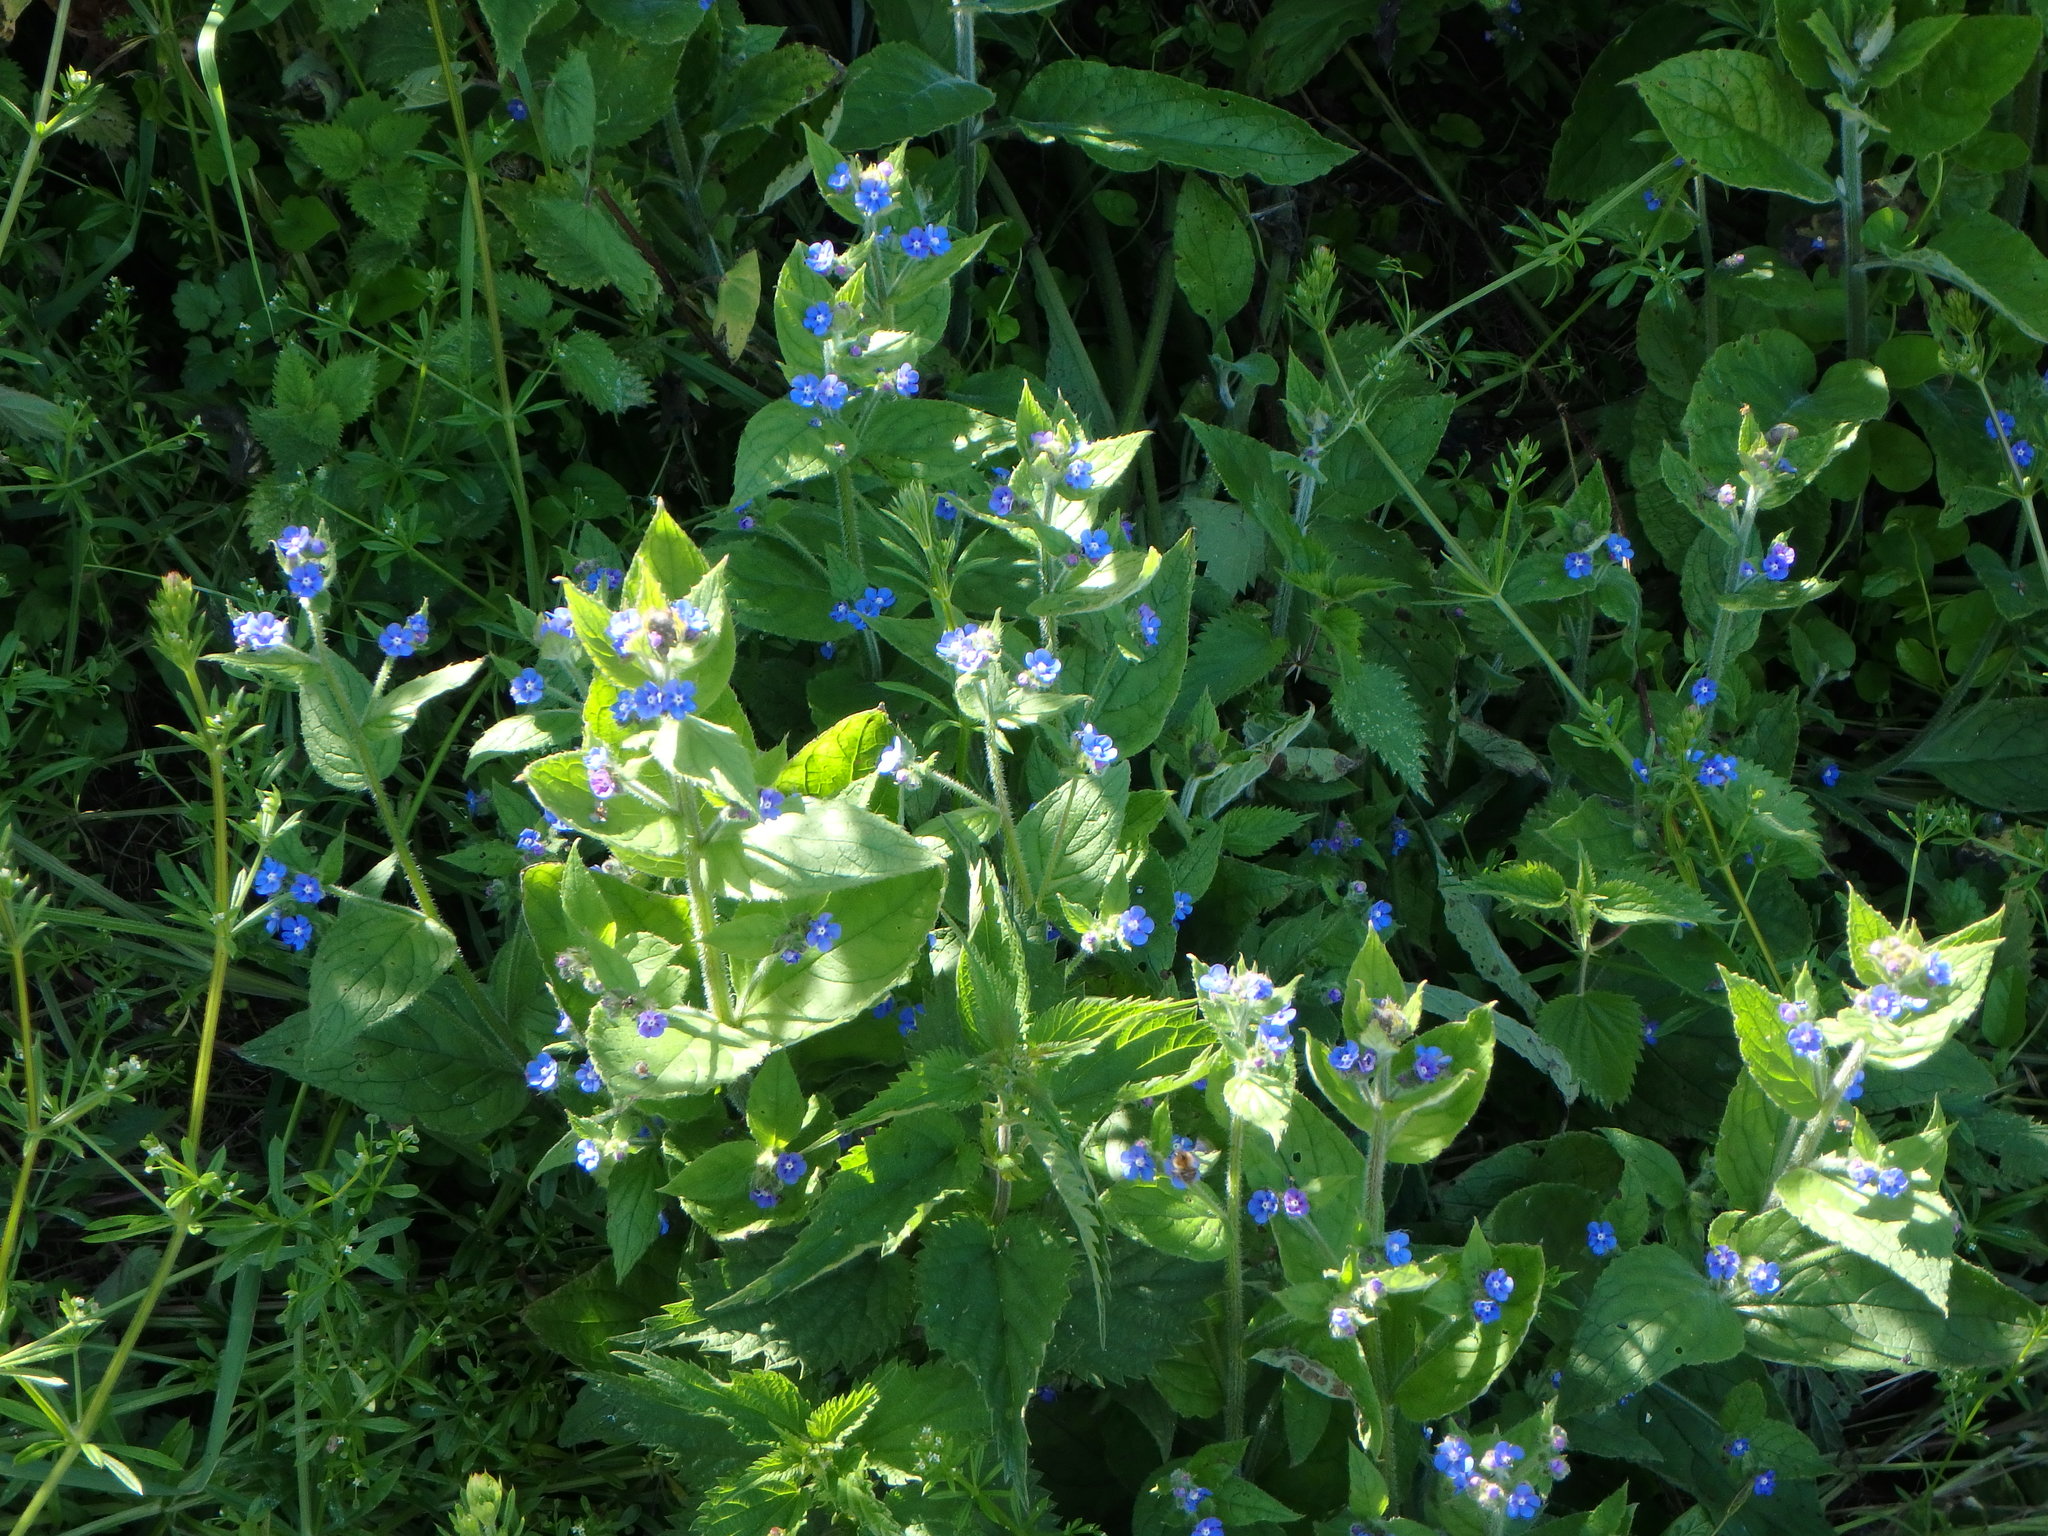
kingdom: Plantae
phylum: Tracheophyta
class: Magnoliopsida
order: Boraginales
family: Boraginaceae
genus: Pentaglottis
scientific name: Pentaglottis sempervirens
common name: Green alkanet
